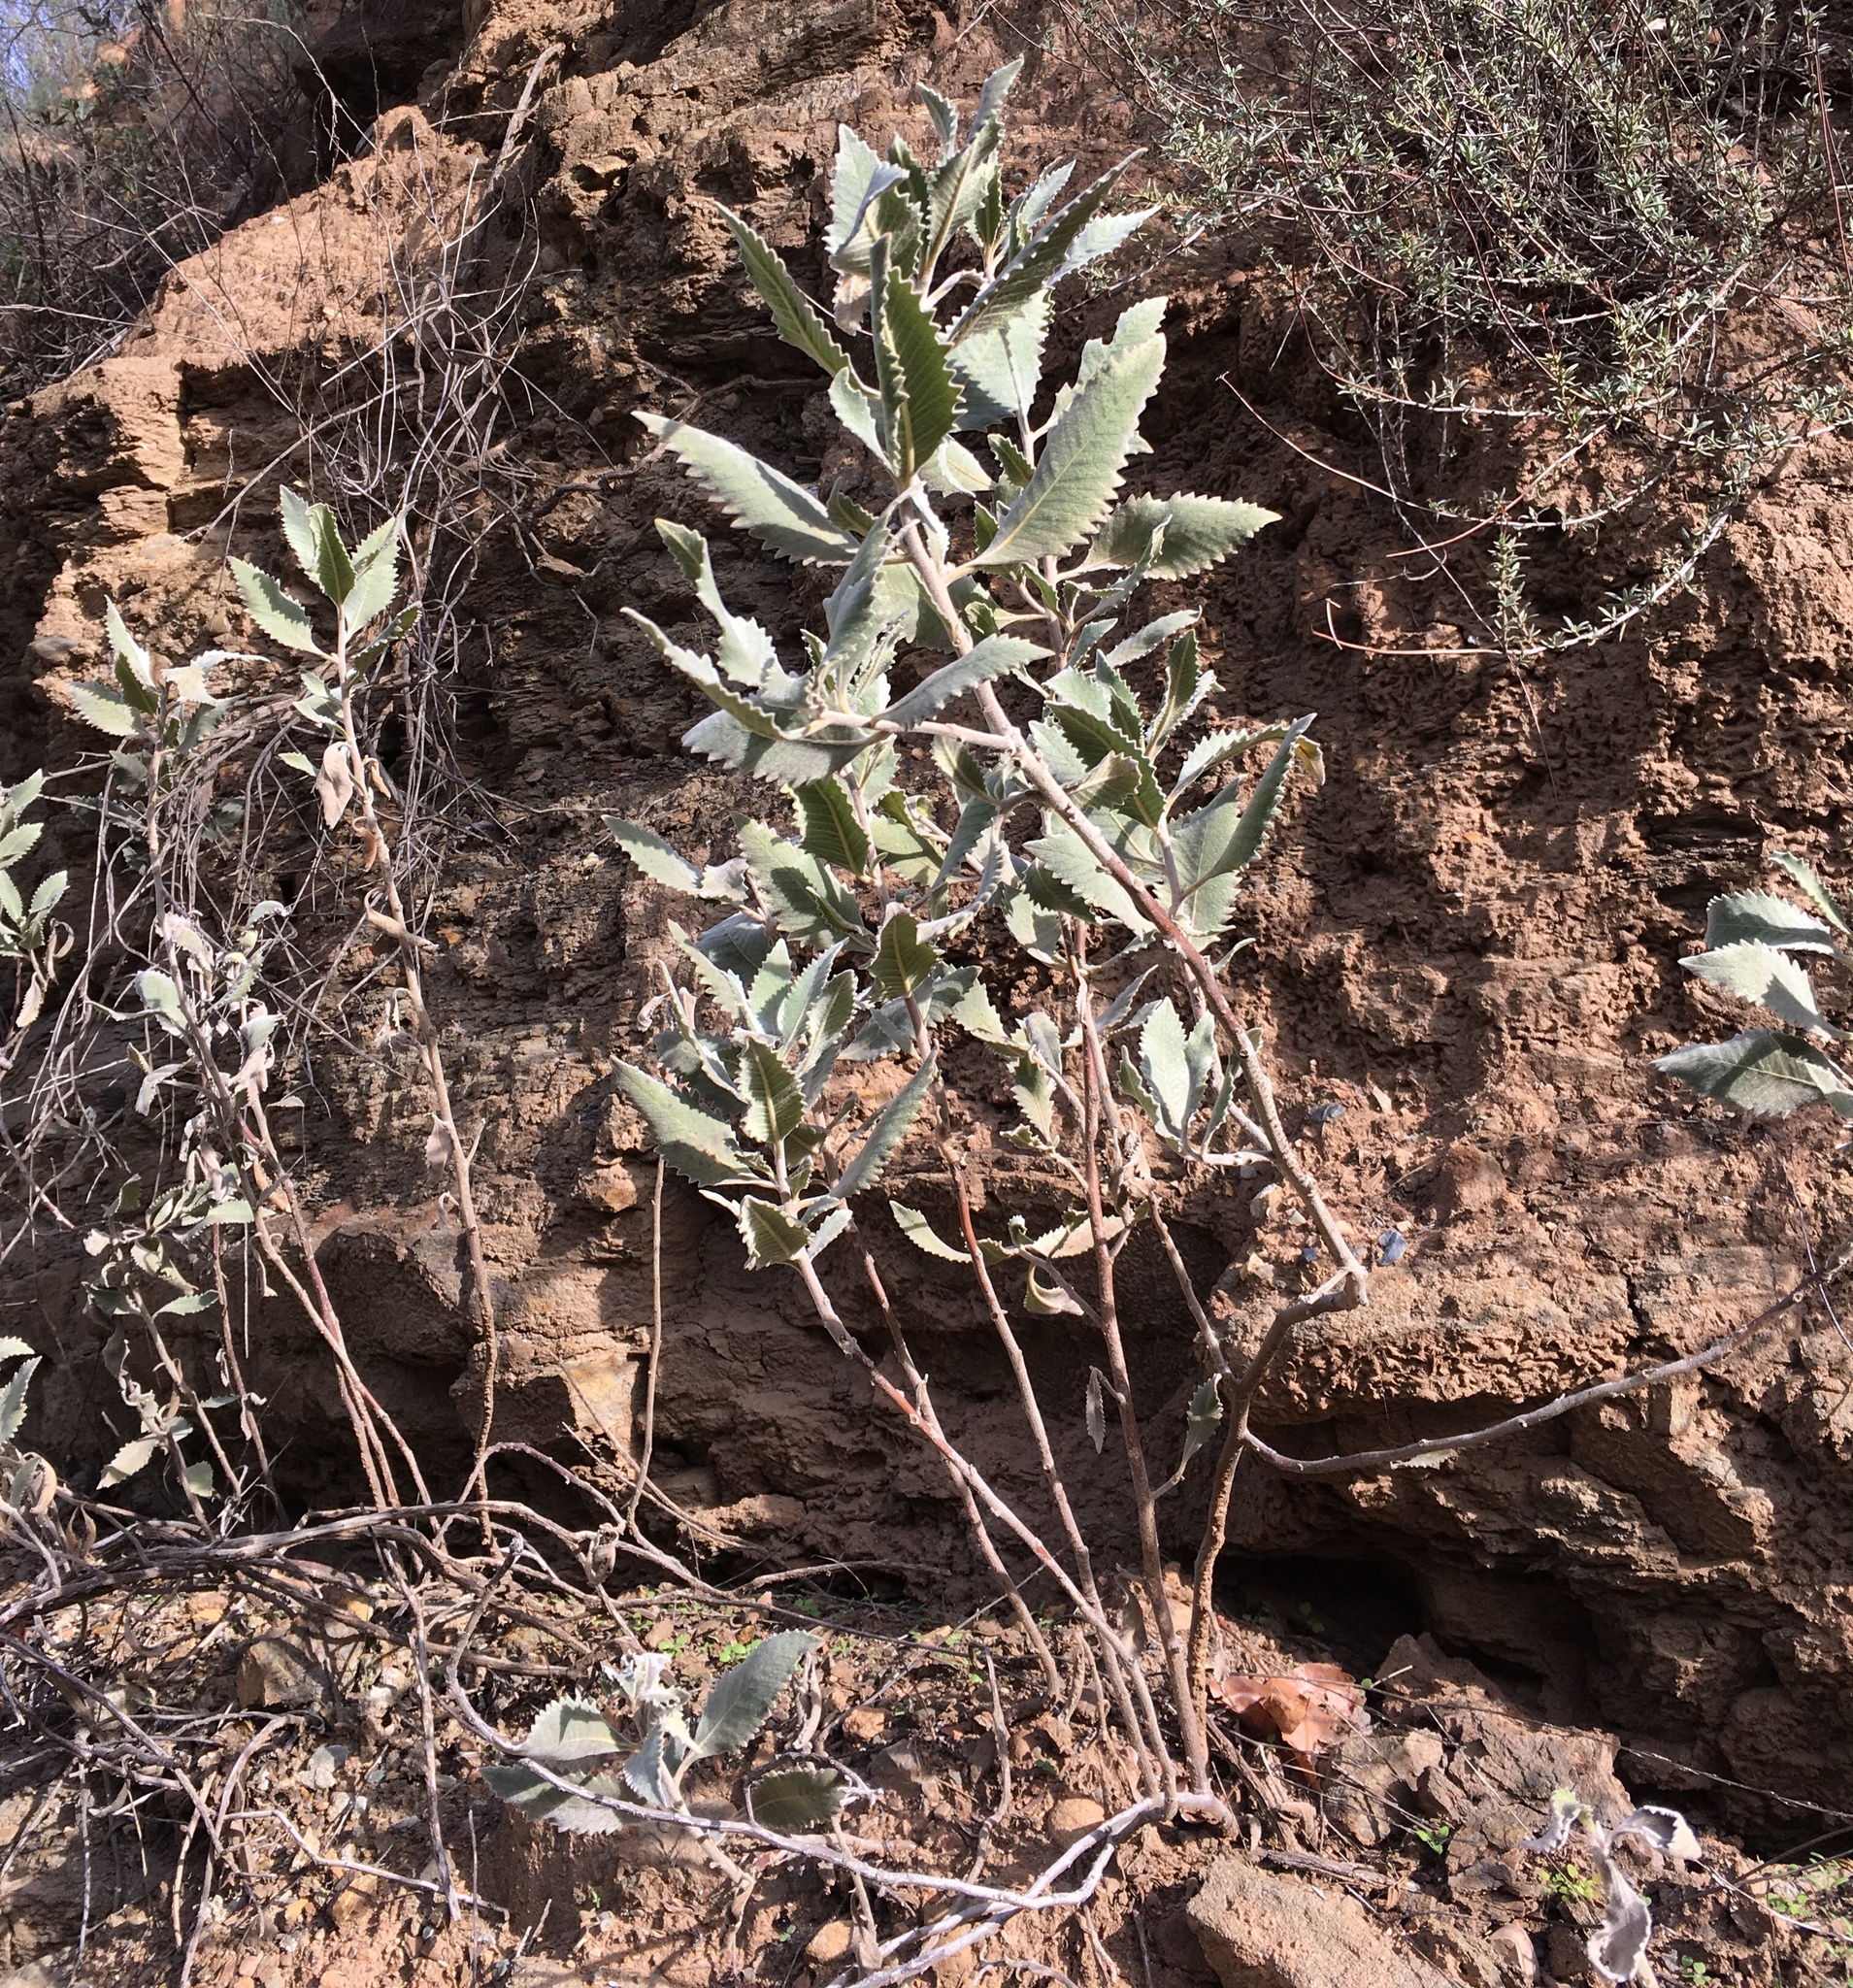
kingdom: Plantae
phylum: Tracheophyta
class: Magnoliopsida
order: Boraginales
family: Namaceae
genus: Eriodictyon
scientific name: Eriodictyon crassifolium
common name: Thick-leaf yerba-santa
